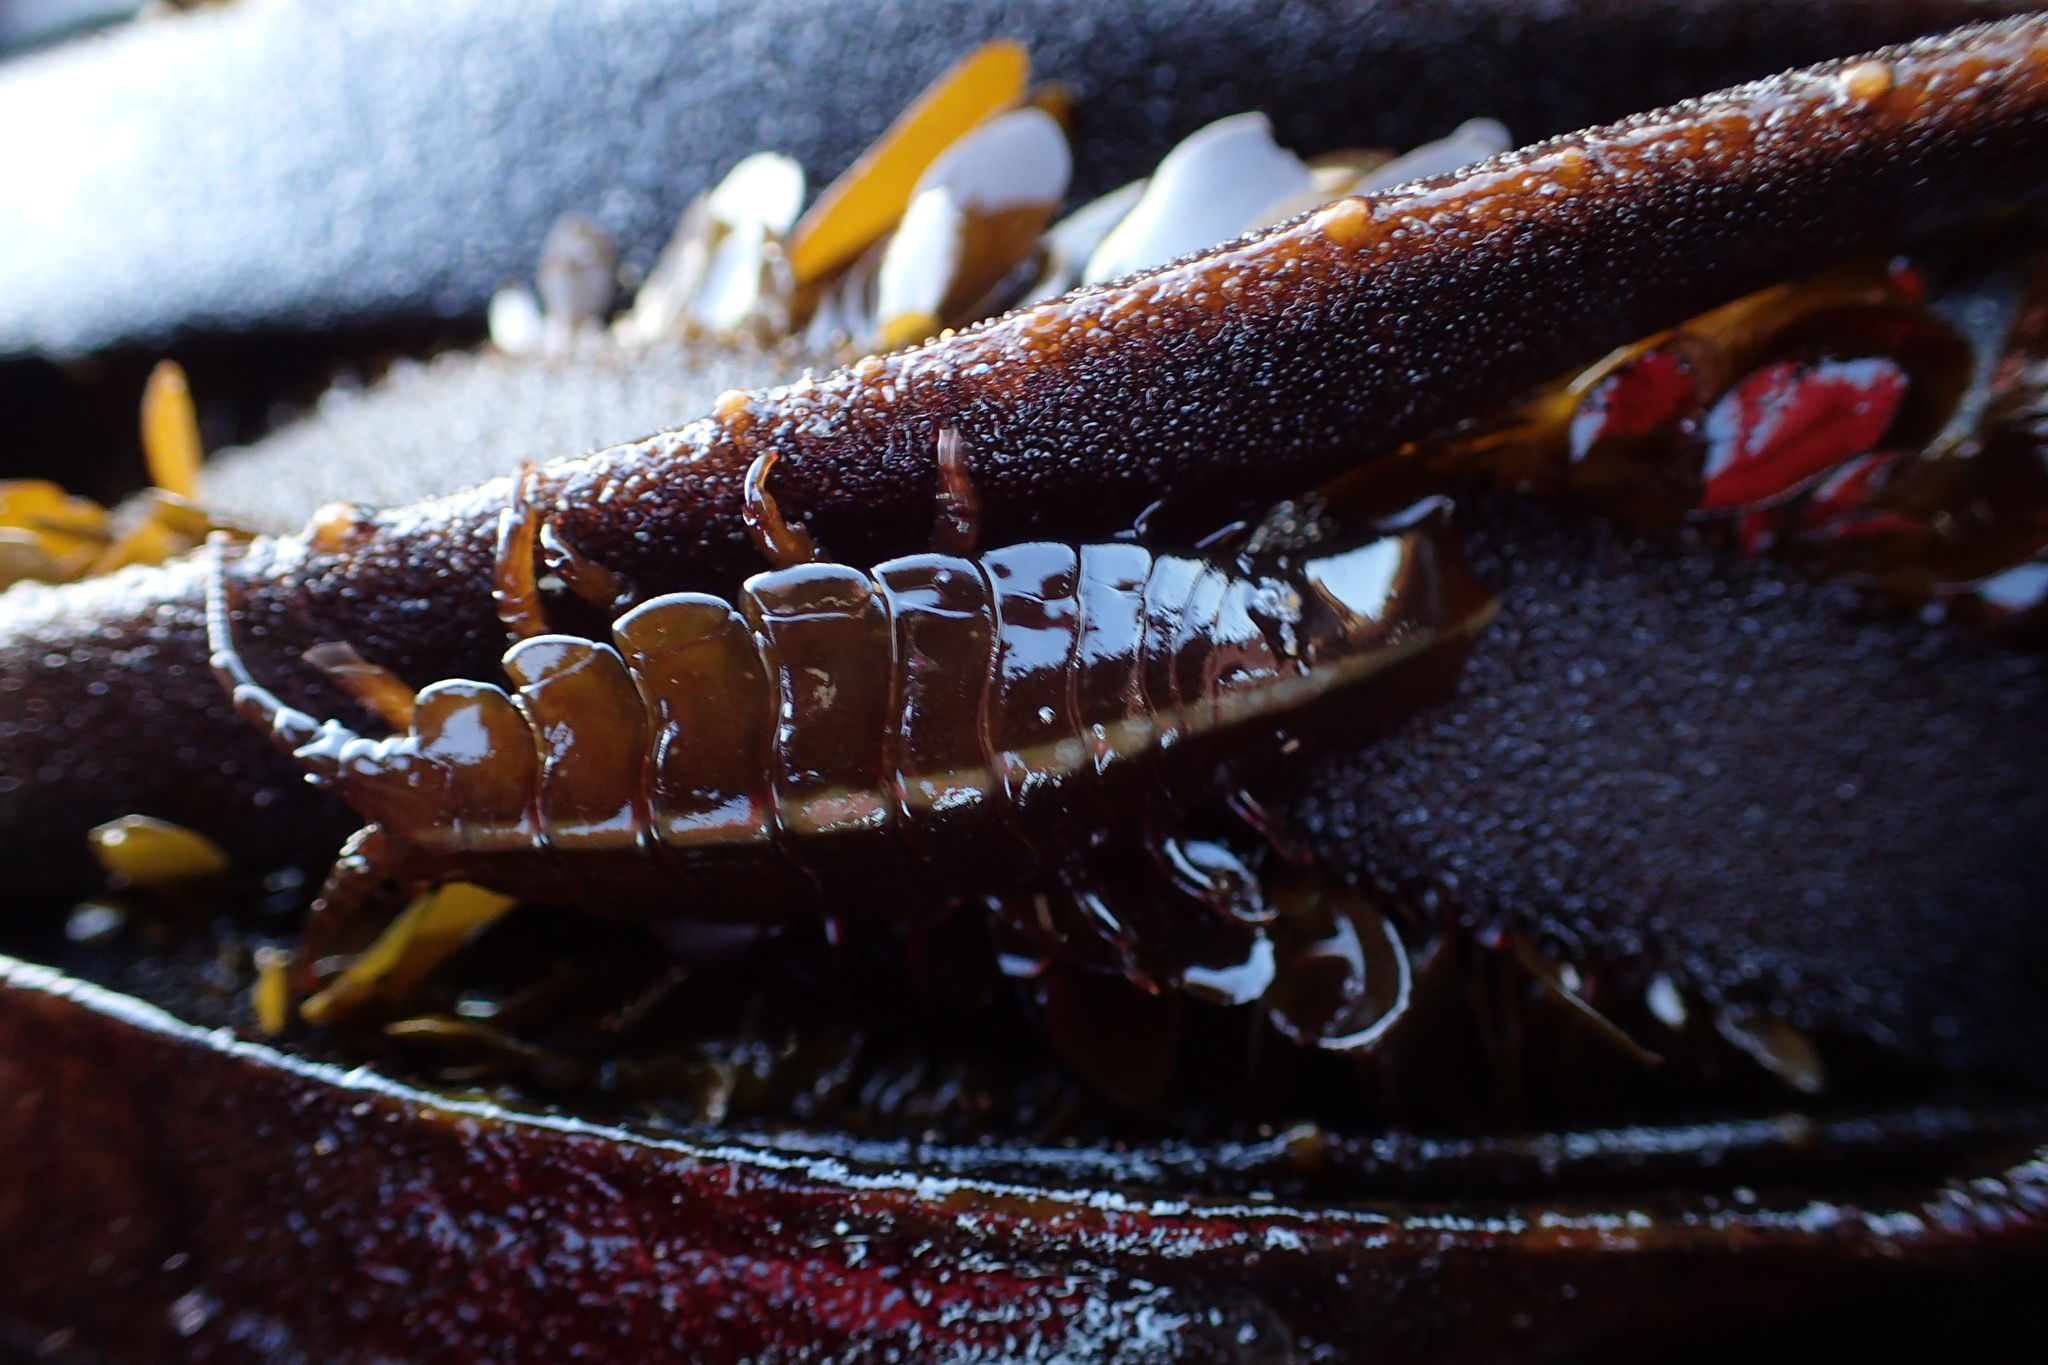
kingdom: Animalia
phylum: Arthropoda
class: Malacostraca
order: Isopoda
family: Idoteidae
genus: Pentidotea
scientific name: Pentidotea stenops
